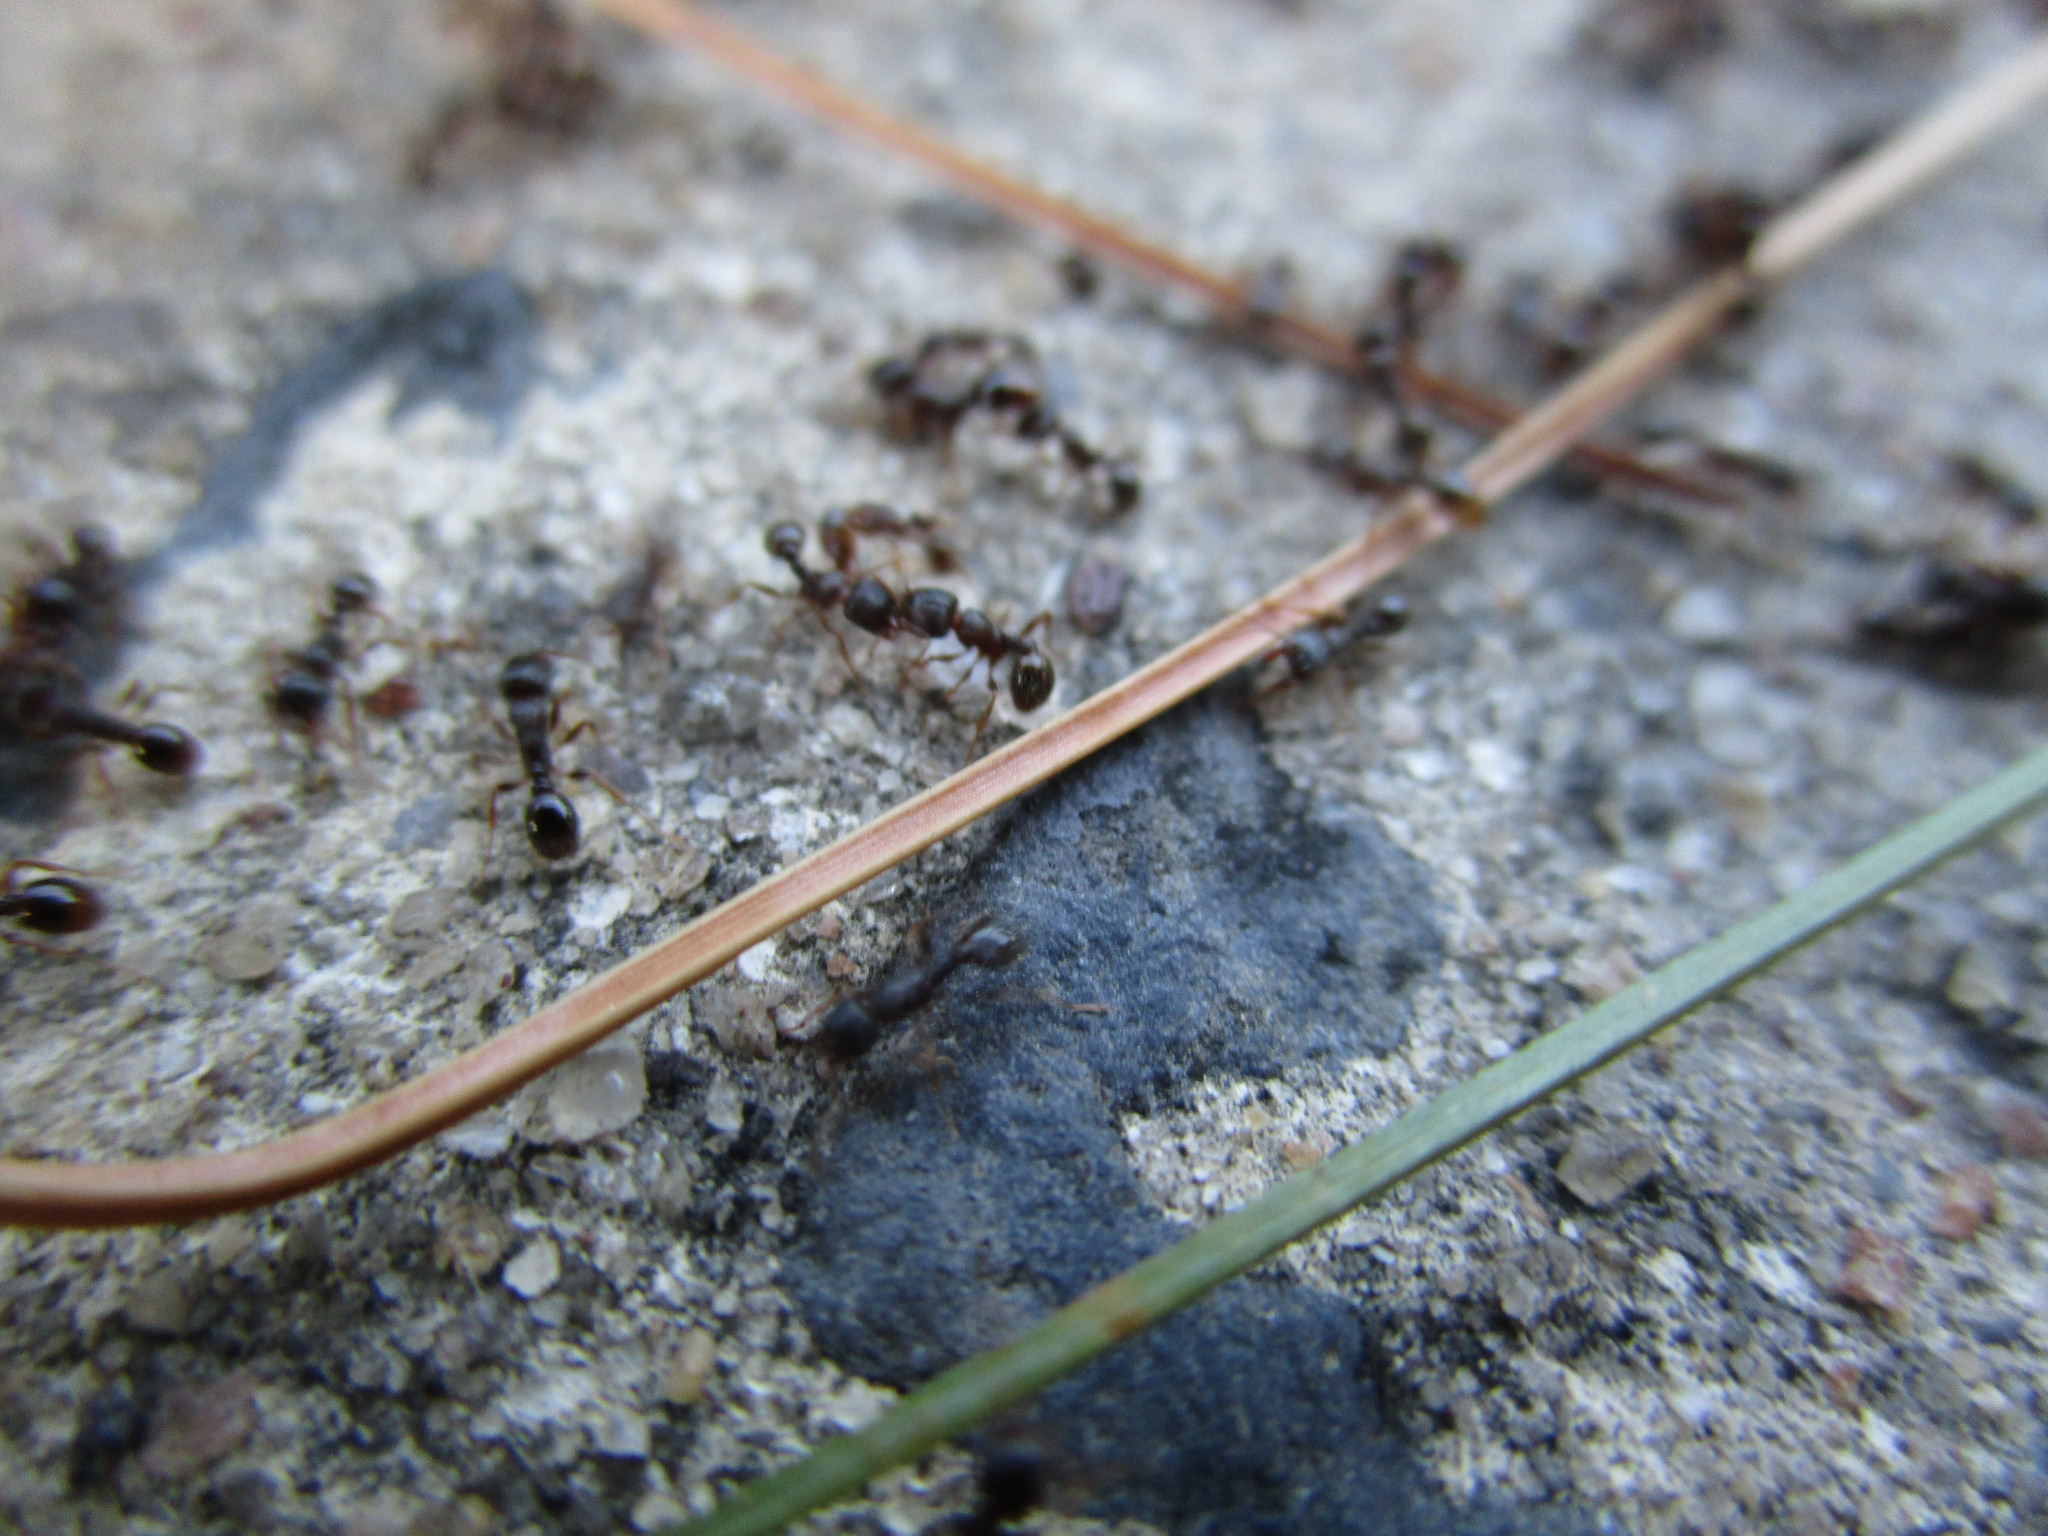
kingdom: Animalia
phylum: Arthropoda
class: Insecta
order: Hymenoptera
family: Formicidae
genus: Tetramorium
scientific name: Tetramorium immigrans
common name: Pavement ant
